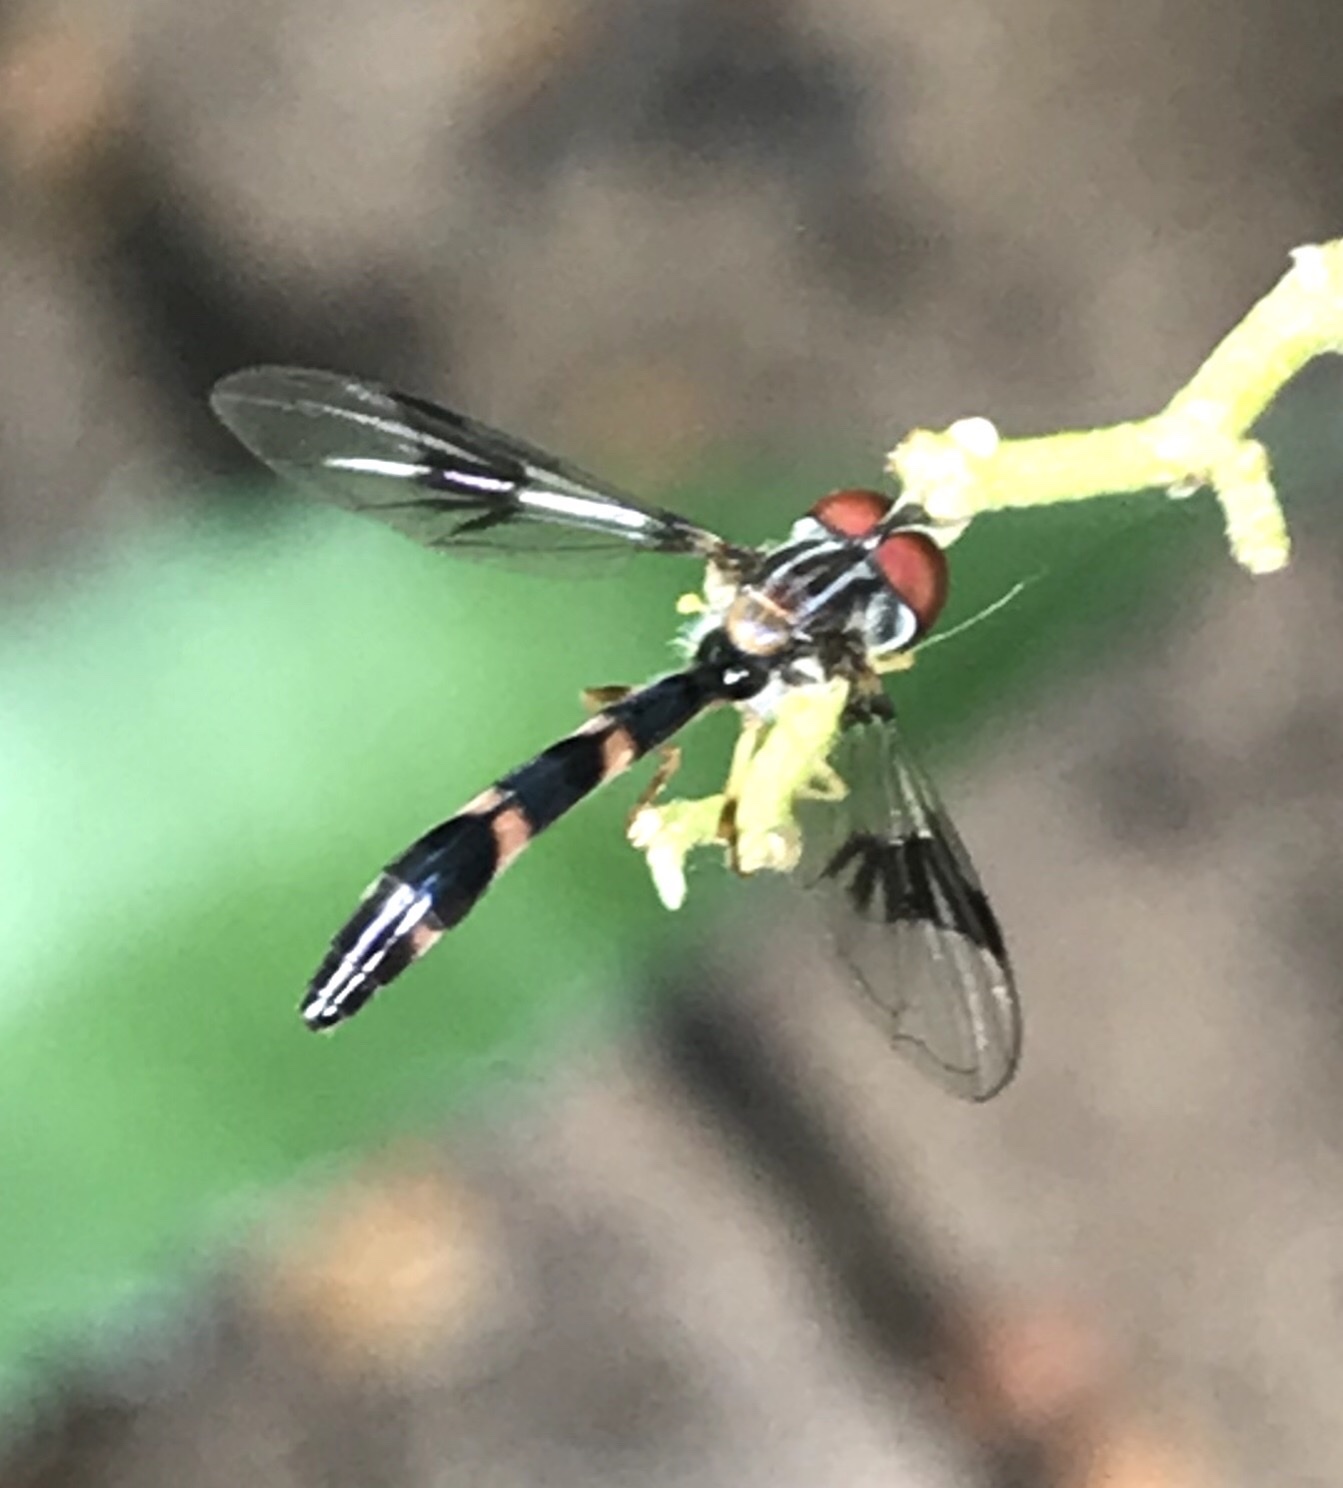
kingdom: Animalia
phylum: Arthropoda
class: Insecta
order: Diptera
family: Syrphidae
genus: Hypocritanus
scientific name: Hypocritanus fascipennis
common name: Eastern band-winged hover fly
